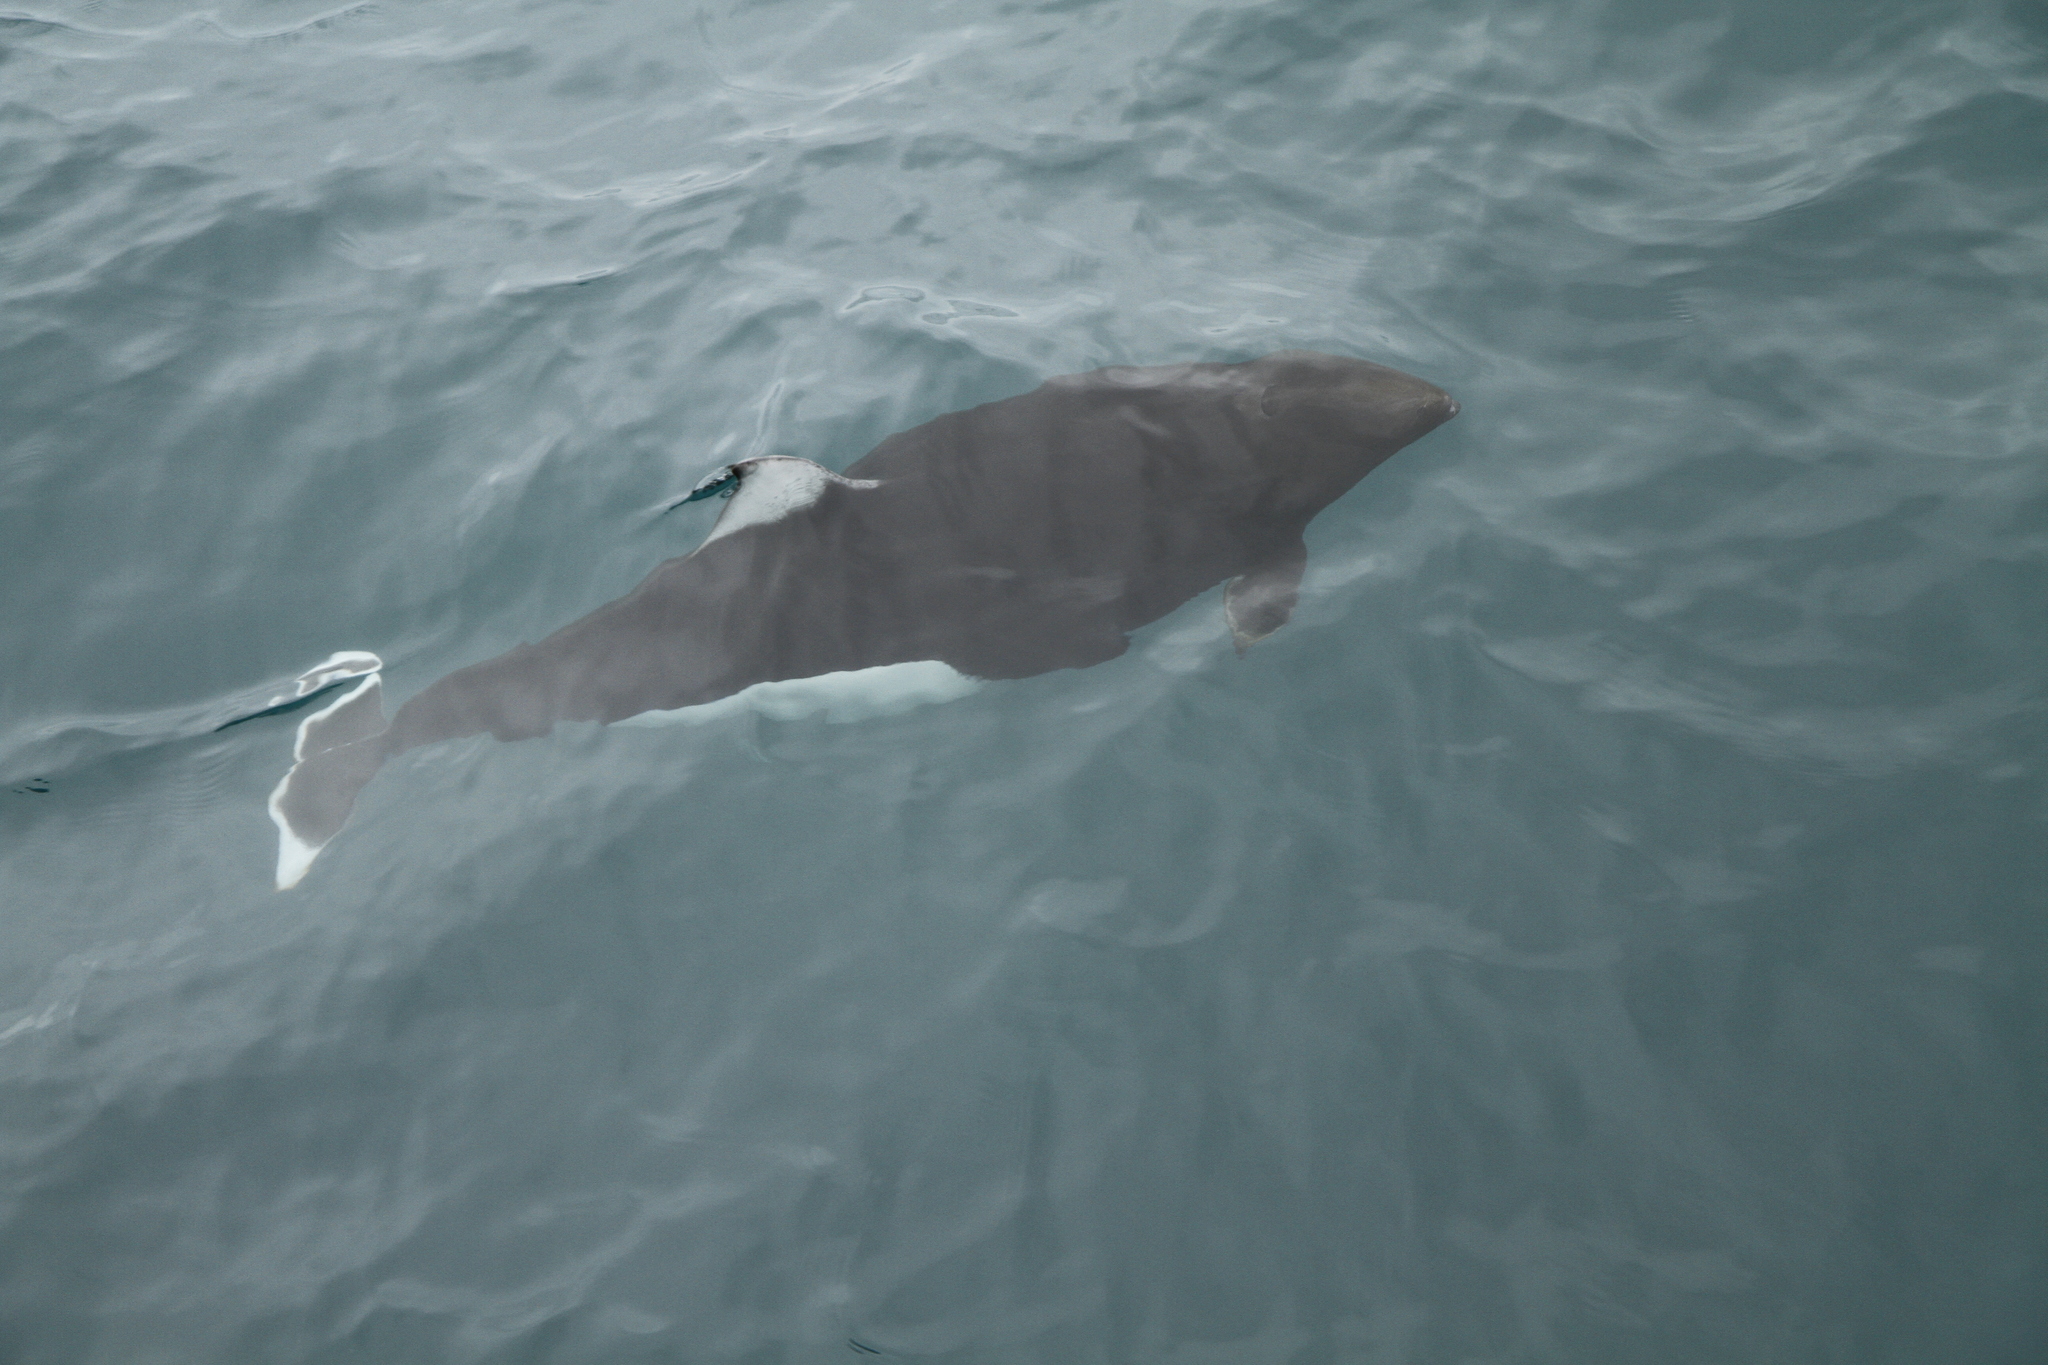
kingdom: Animalia
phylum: Chordata
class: Mammalia
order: Cetacea
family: Phocoenidae
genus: Phocoenoides
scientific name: Phocoenoides dalli
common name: Dall's porpoise
